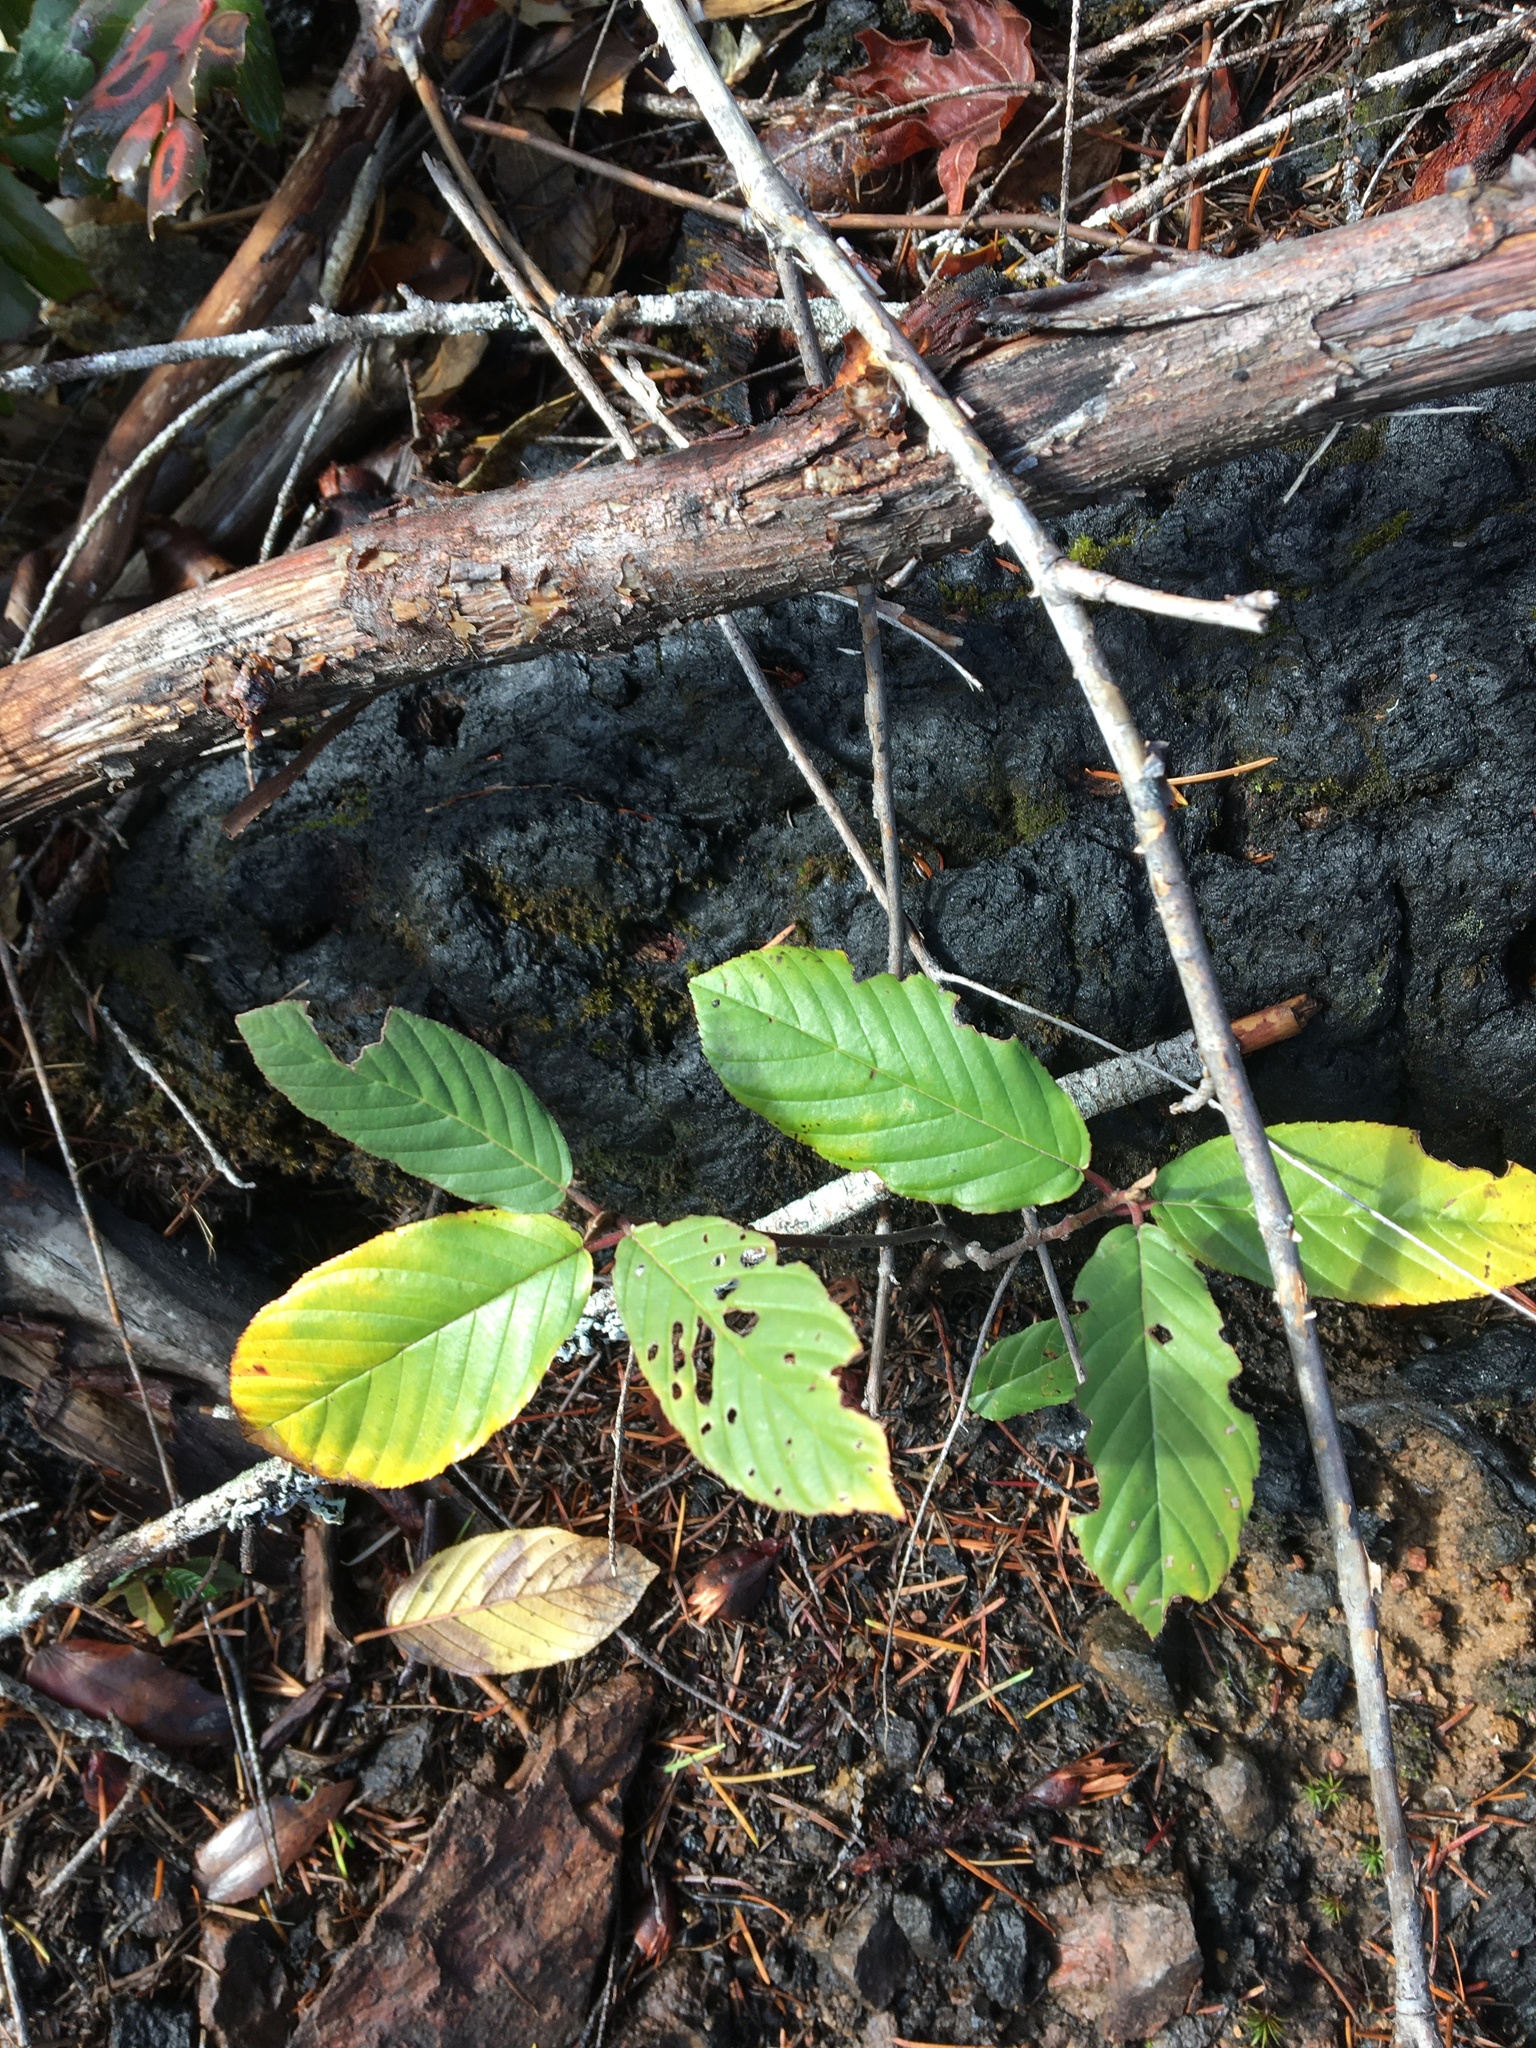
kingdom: Plantae
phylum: Tracheophyta
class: Magnoliopsida
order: Rosales
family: Rhamnaceae
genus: Frangula
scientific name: Frangula purshiana
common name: Cascara buckthorn
